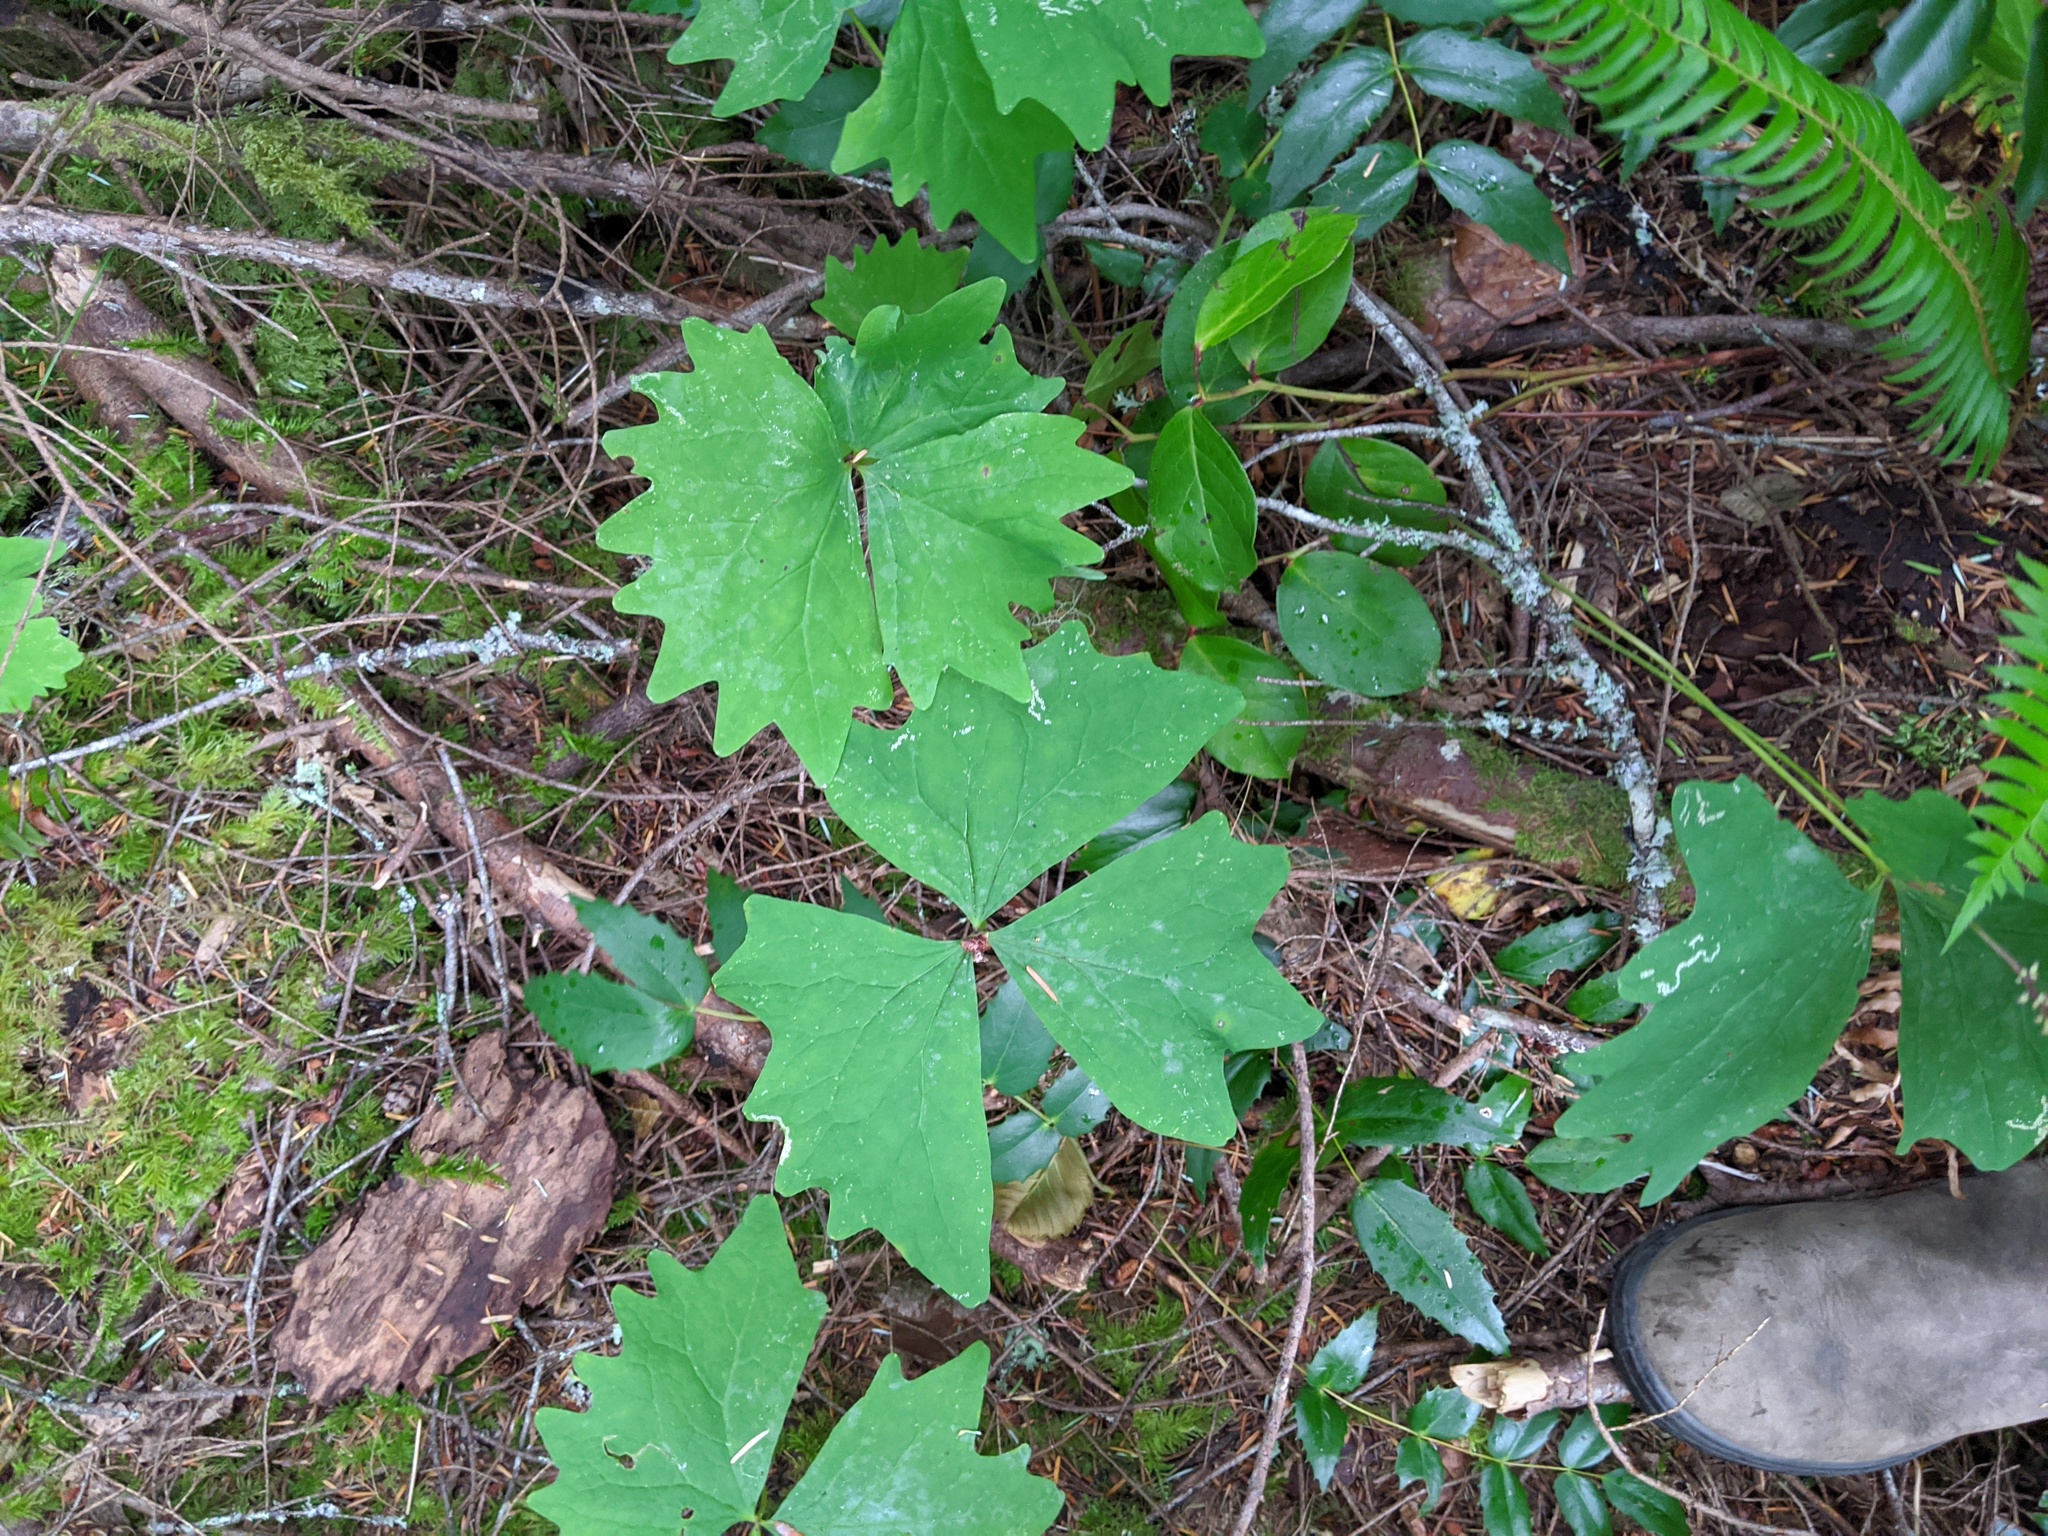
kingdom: Plantae
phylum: Tracheophyta
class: Magnoliopsida
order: Ranunculales
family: Berberidaceae
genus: Achlys
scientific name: Achlys triphylla
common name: Vanilla-leaf
